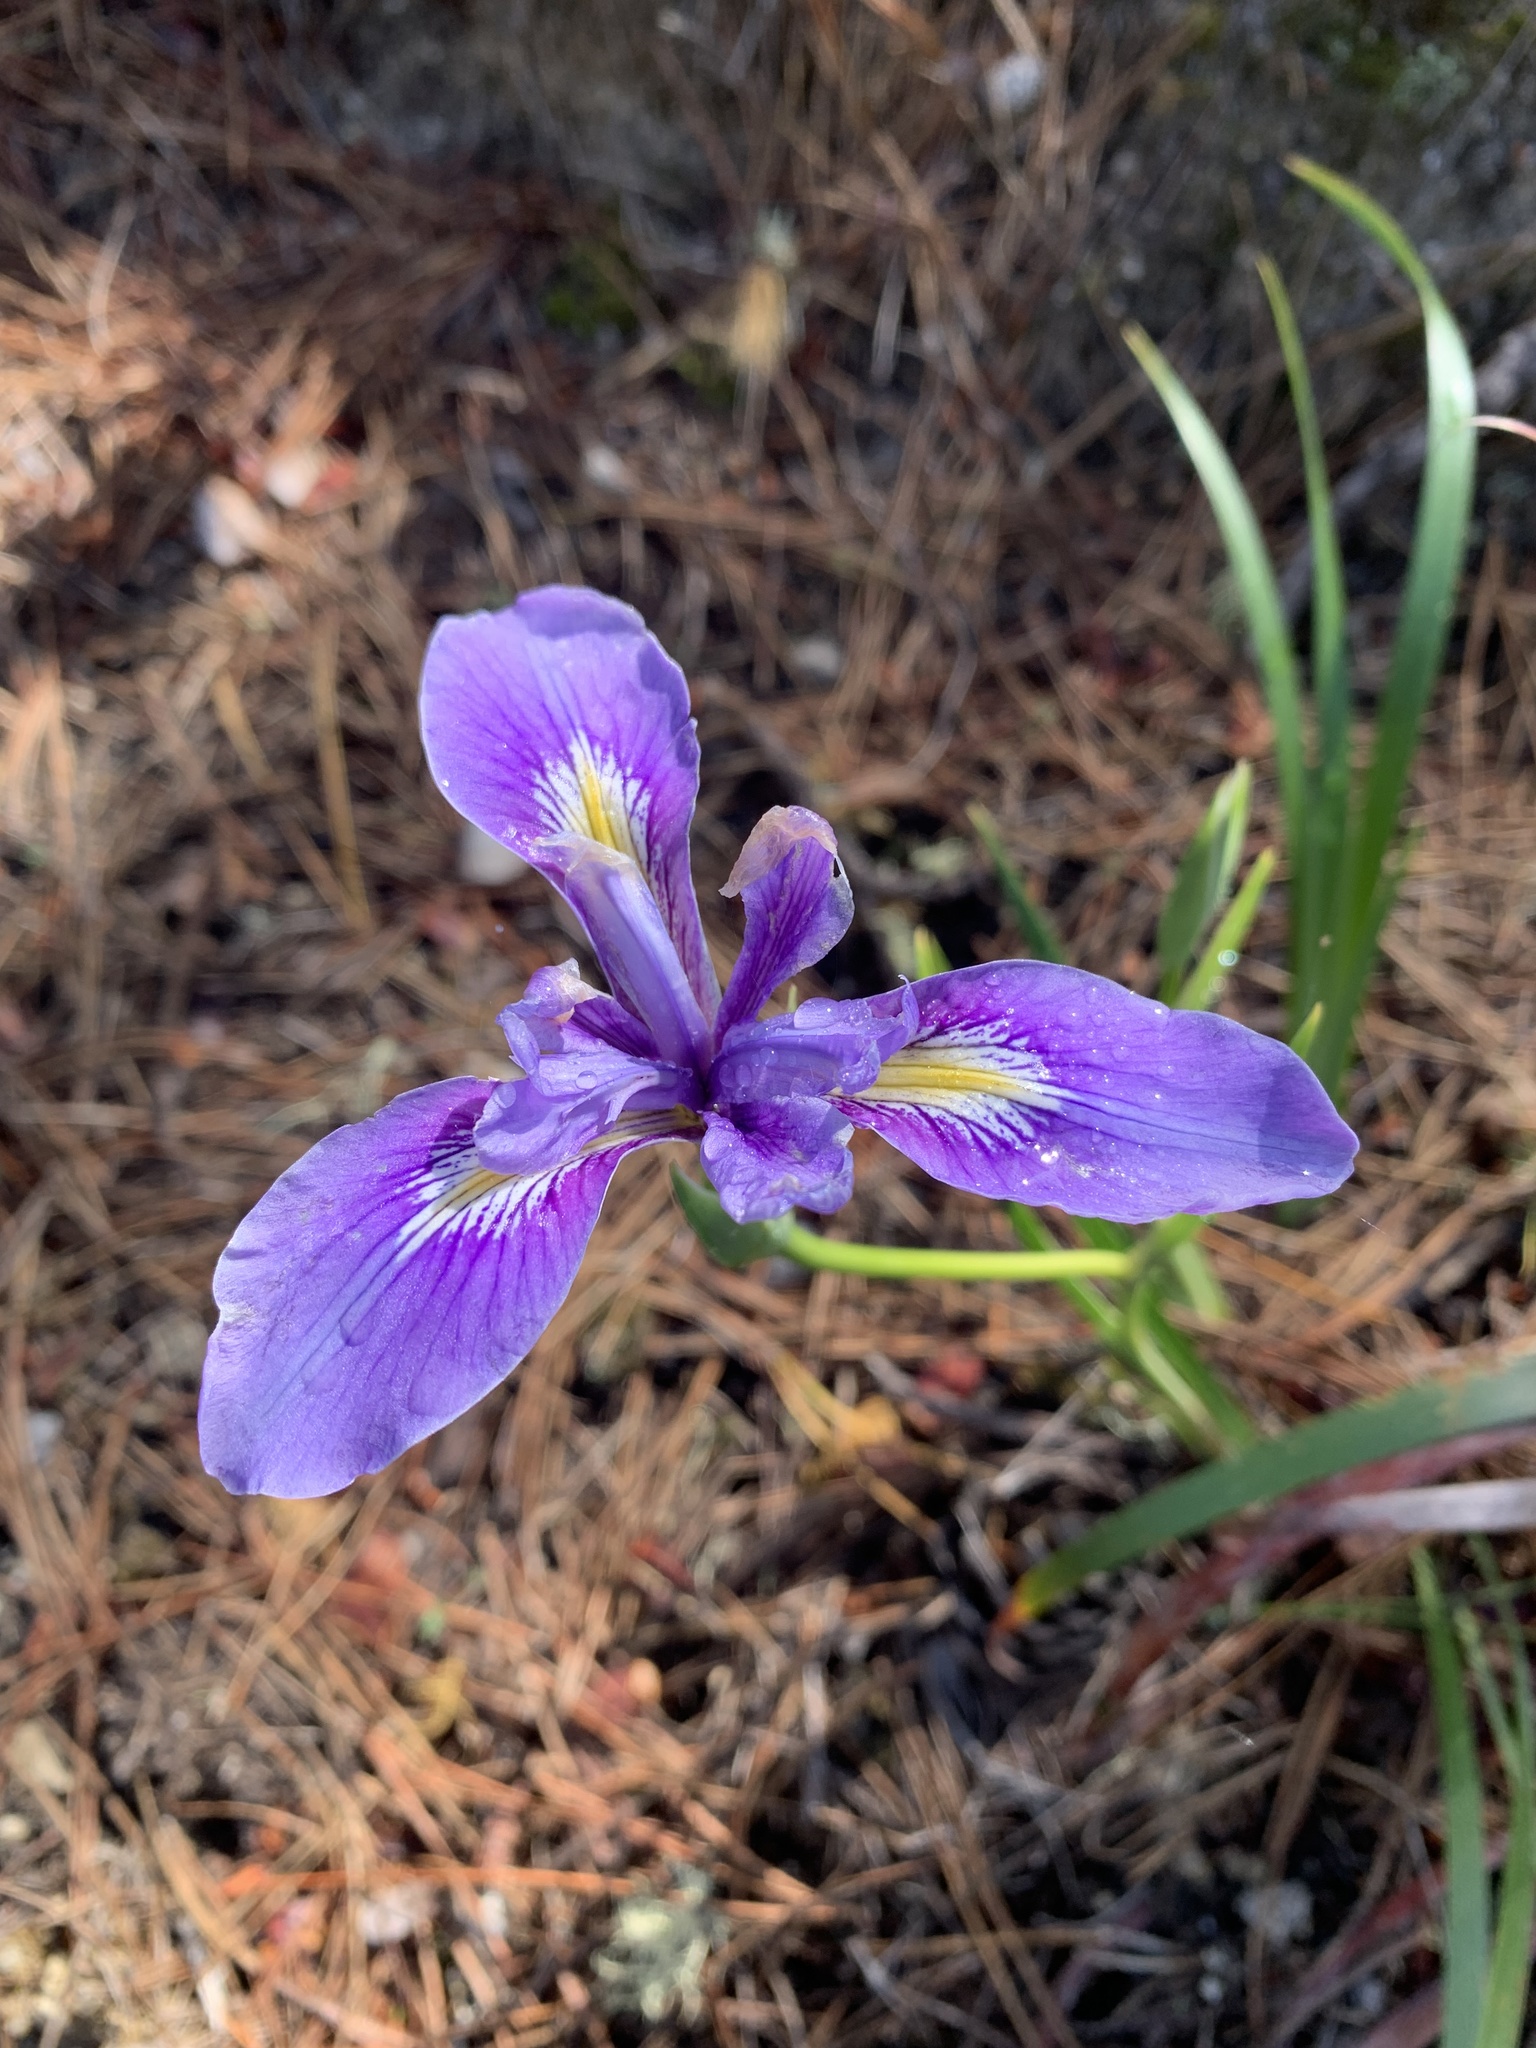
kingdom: Plantae
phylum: Tracheophyta
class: Liliopsida
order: Asparagales
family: Iridaceae
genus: Iris
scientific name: Iris douglasiana
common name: Marin iris
